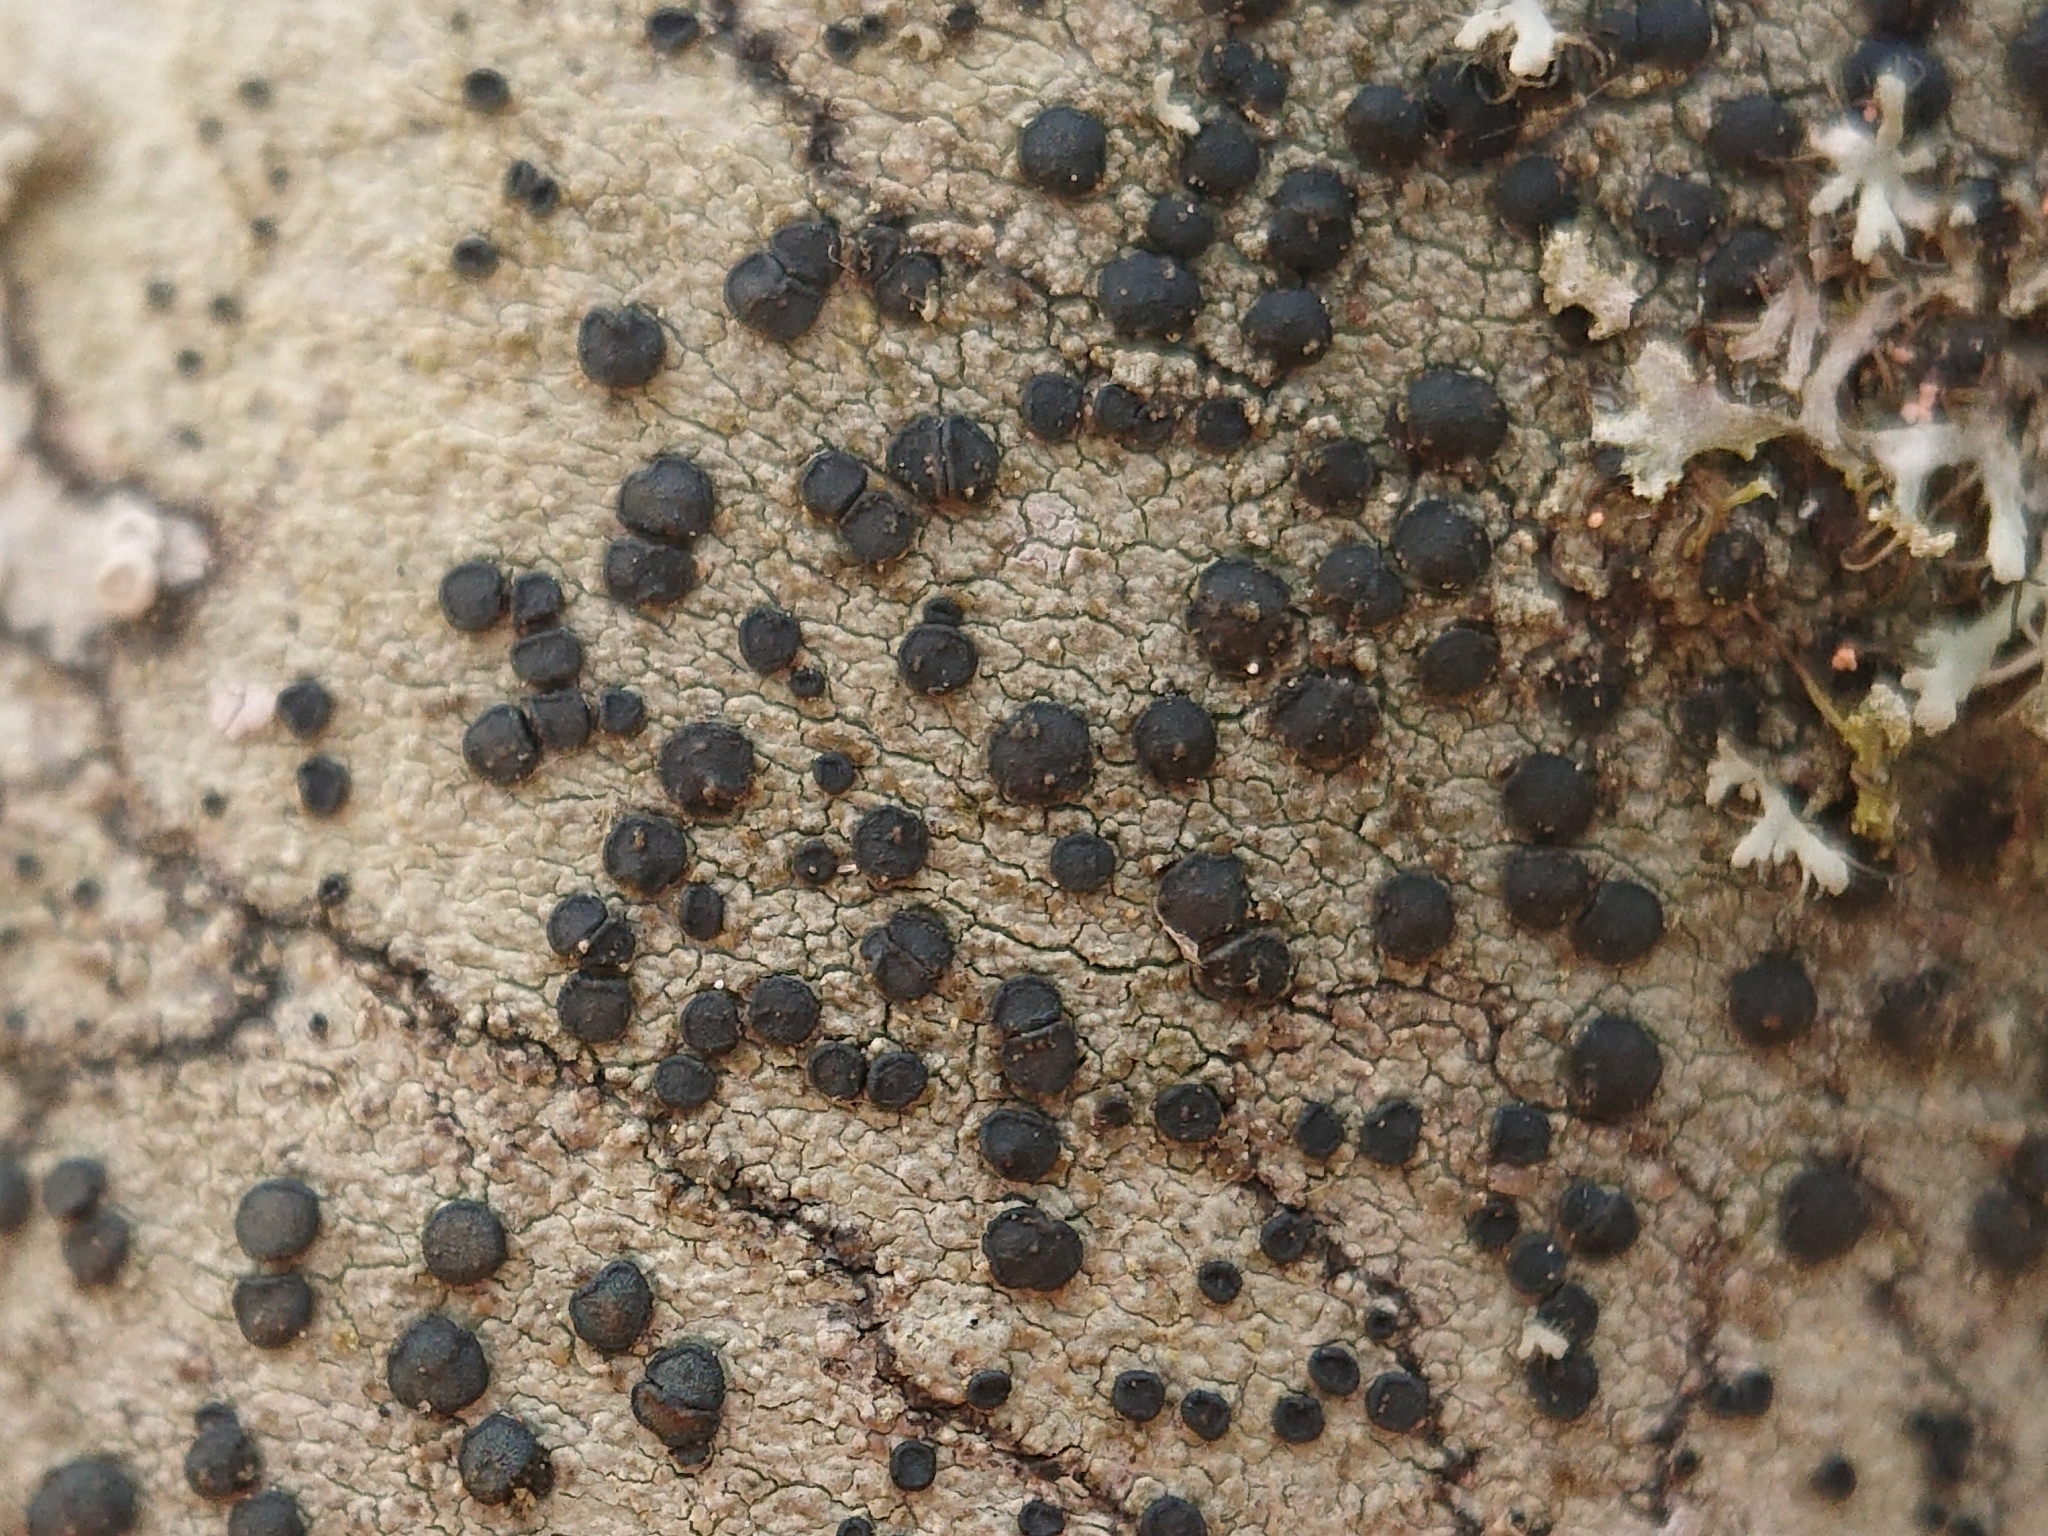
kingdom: Fungi
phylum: Ascomycota
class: Lecanoromycetes
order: Lecanorales
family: Lecanoraceae
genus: Lecidella
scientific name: Lecidella elaeochroma
